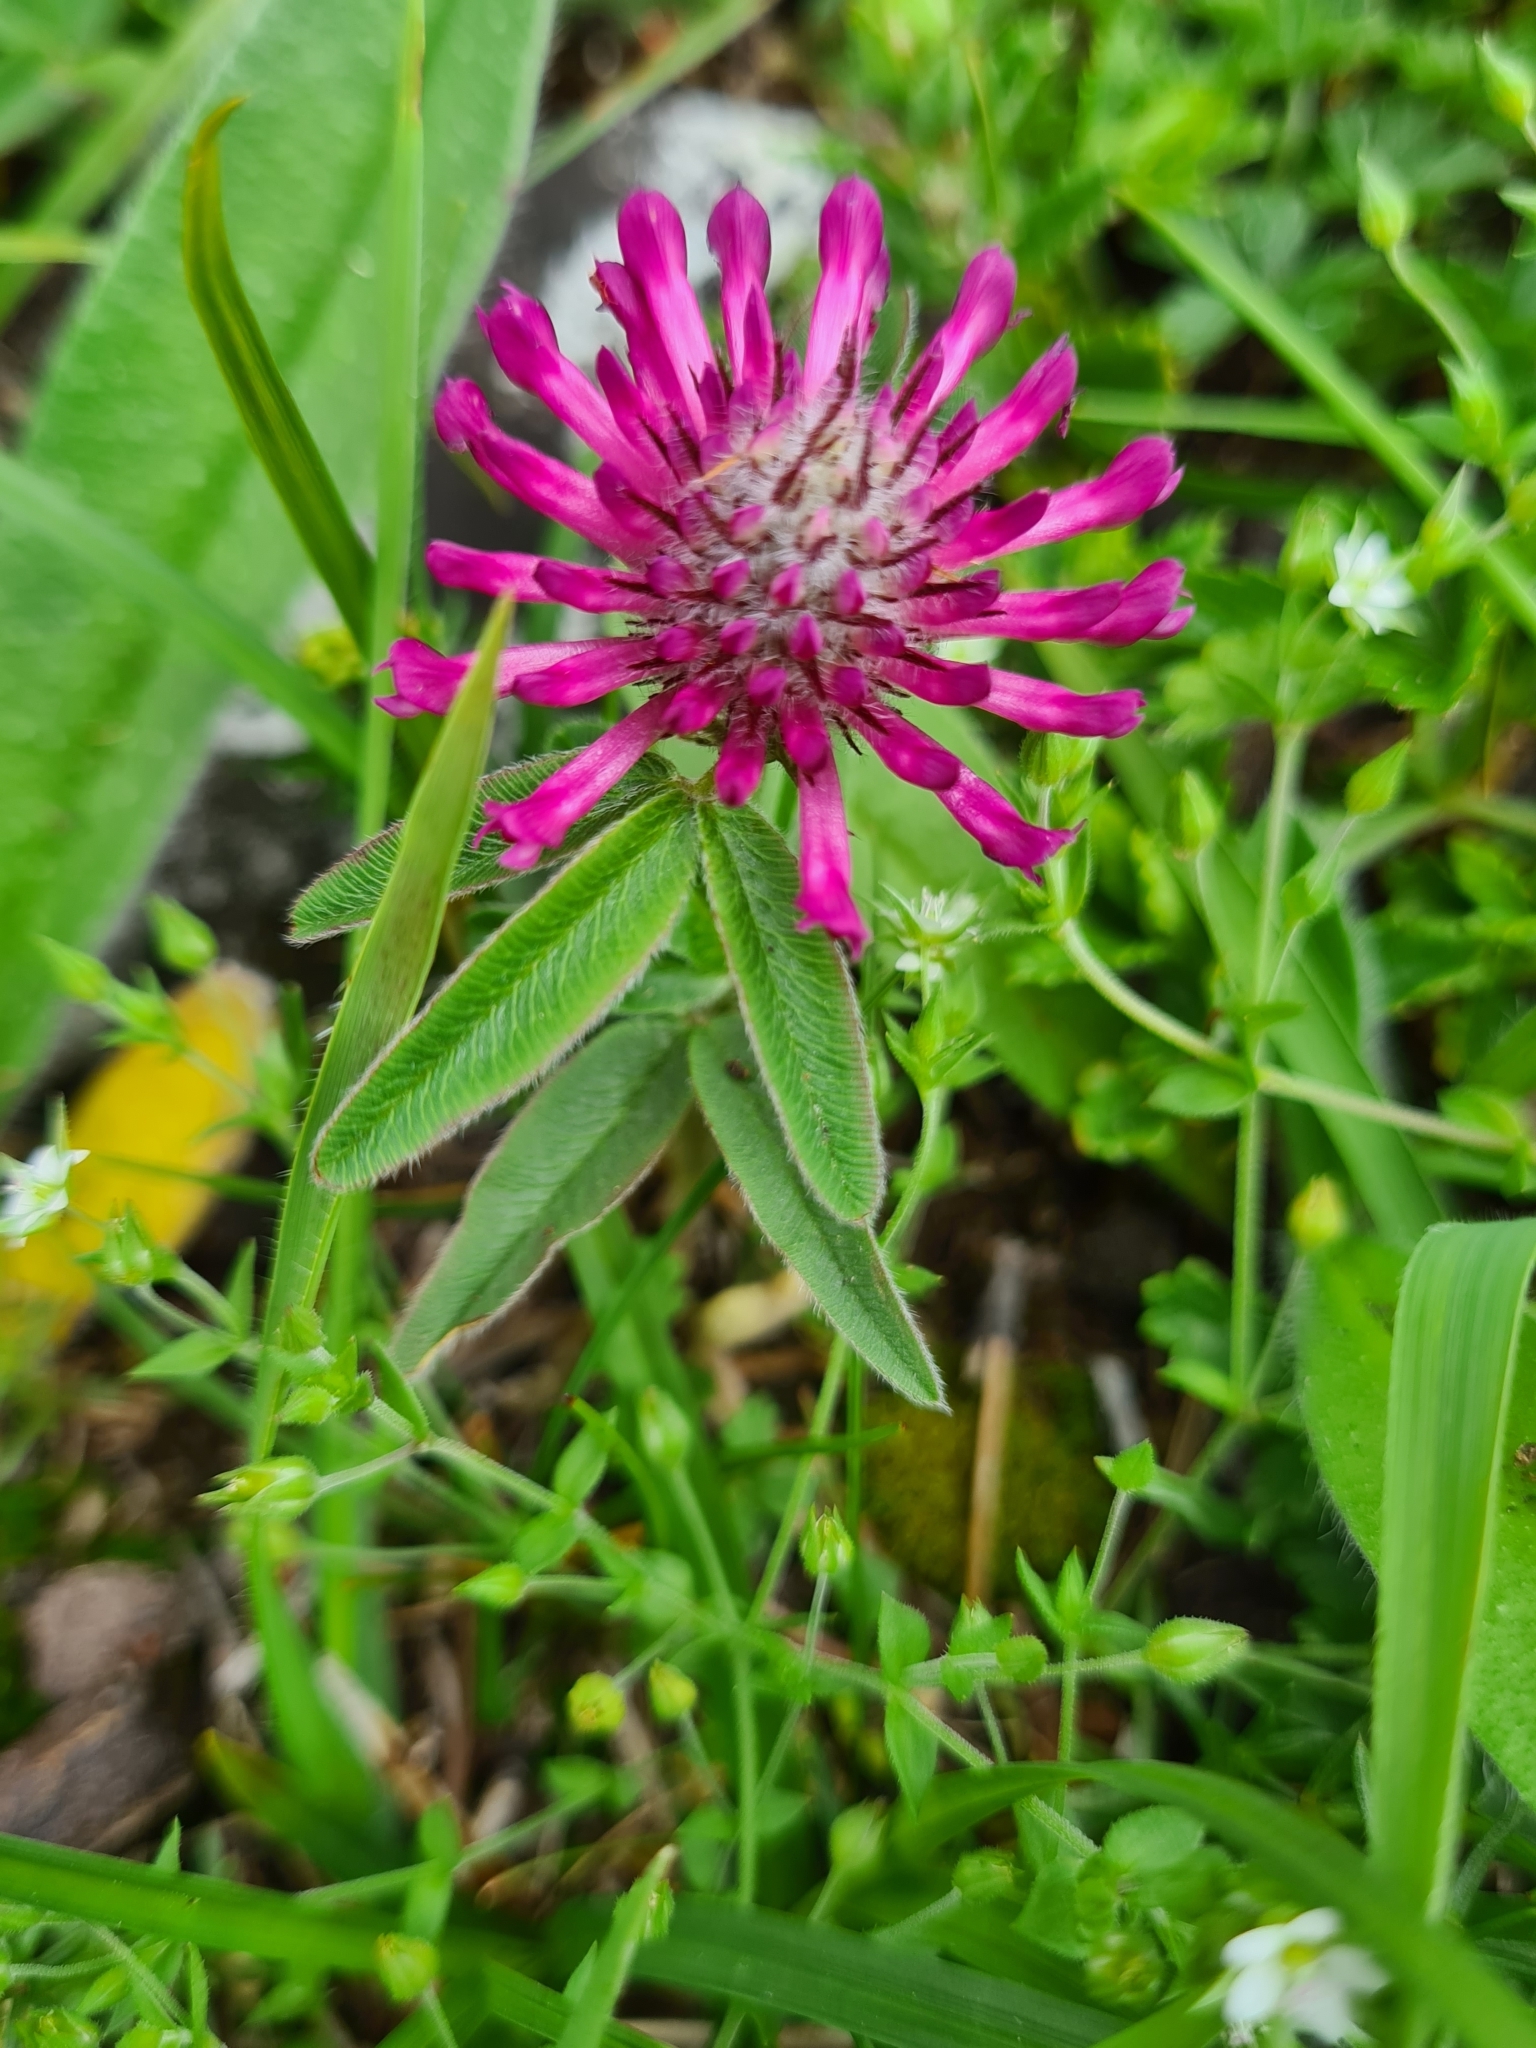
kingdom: Plantae
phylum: Tracheophyta
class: Magnoliopsida
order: Fabales
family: Fabaceae
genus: Trifolium
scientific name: Trifolium alpestre
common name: Owl-head clover
